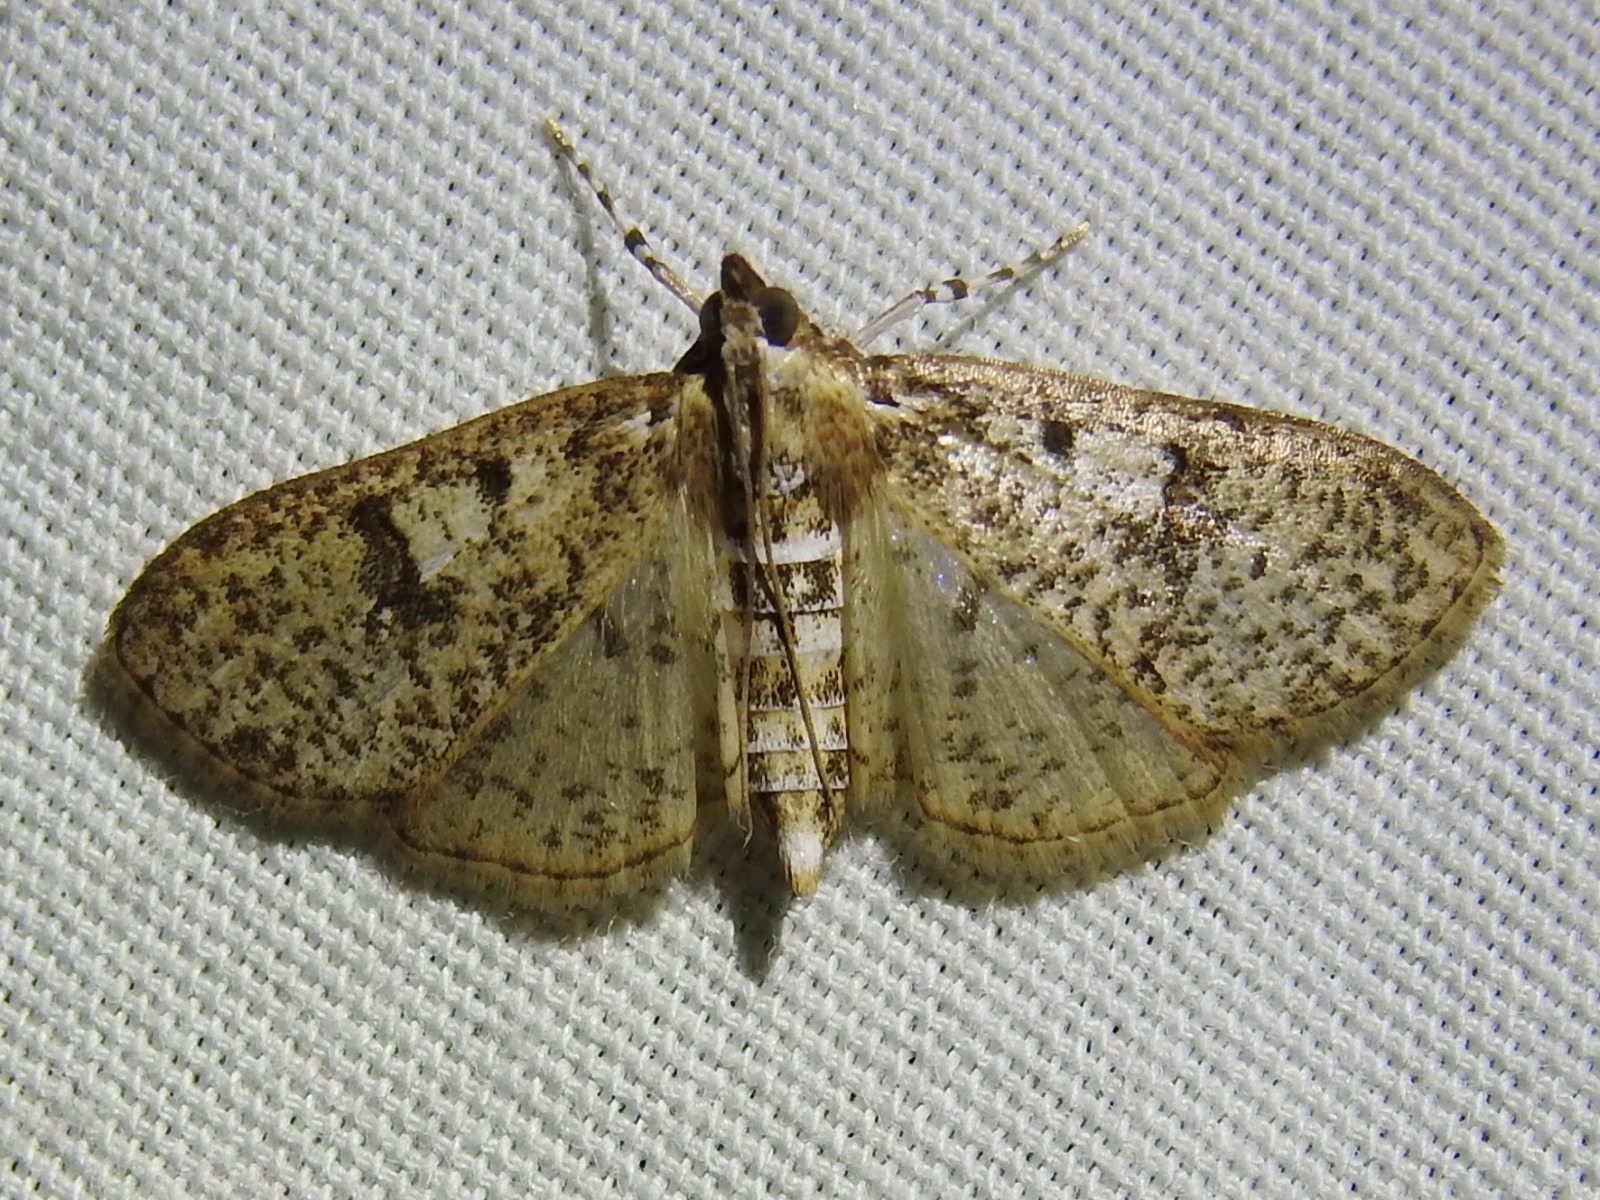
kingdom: Animalia
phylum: Arthropoda
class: Insecta
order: Lepidoptera
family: Crambidae
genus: Palpita
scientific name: Palpita magniferalis
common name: Splendid palpita moth
